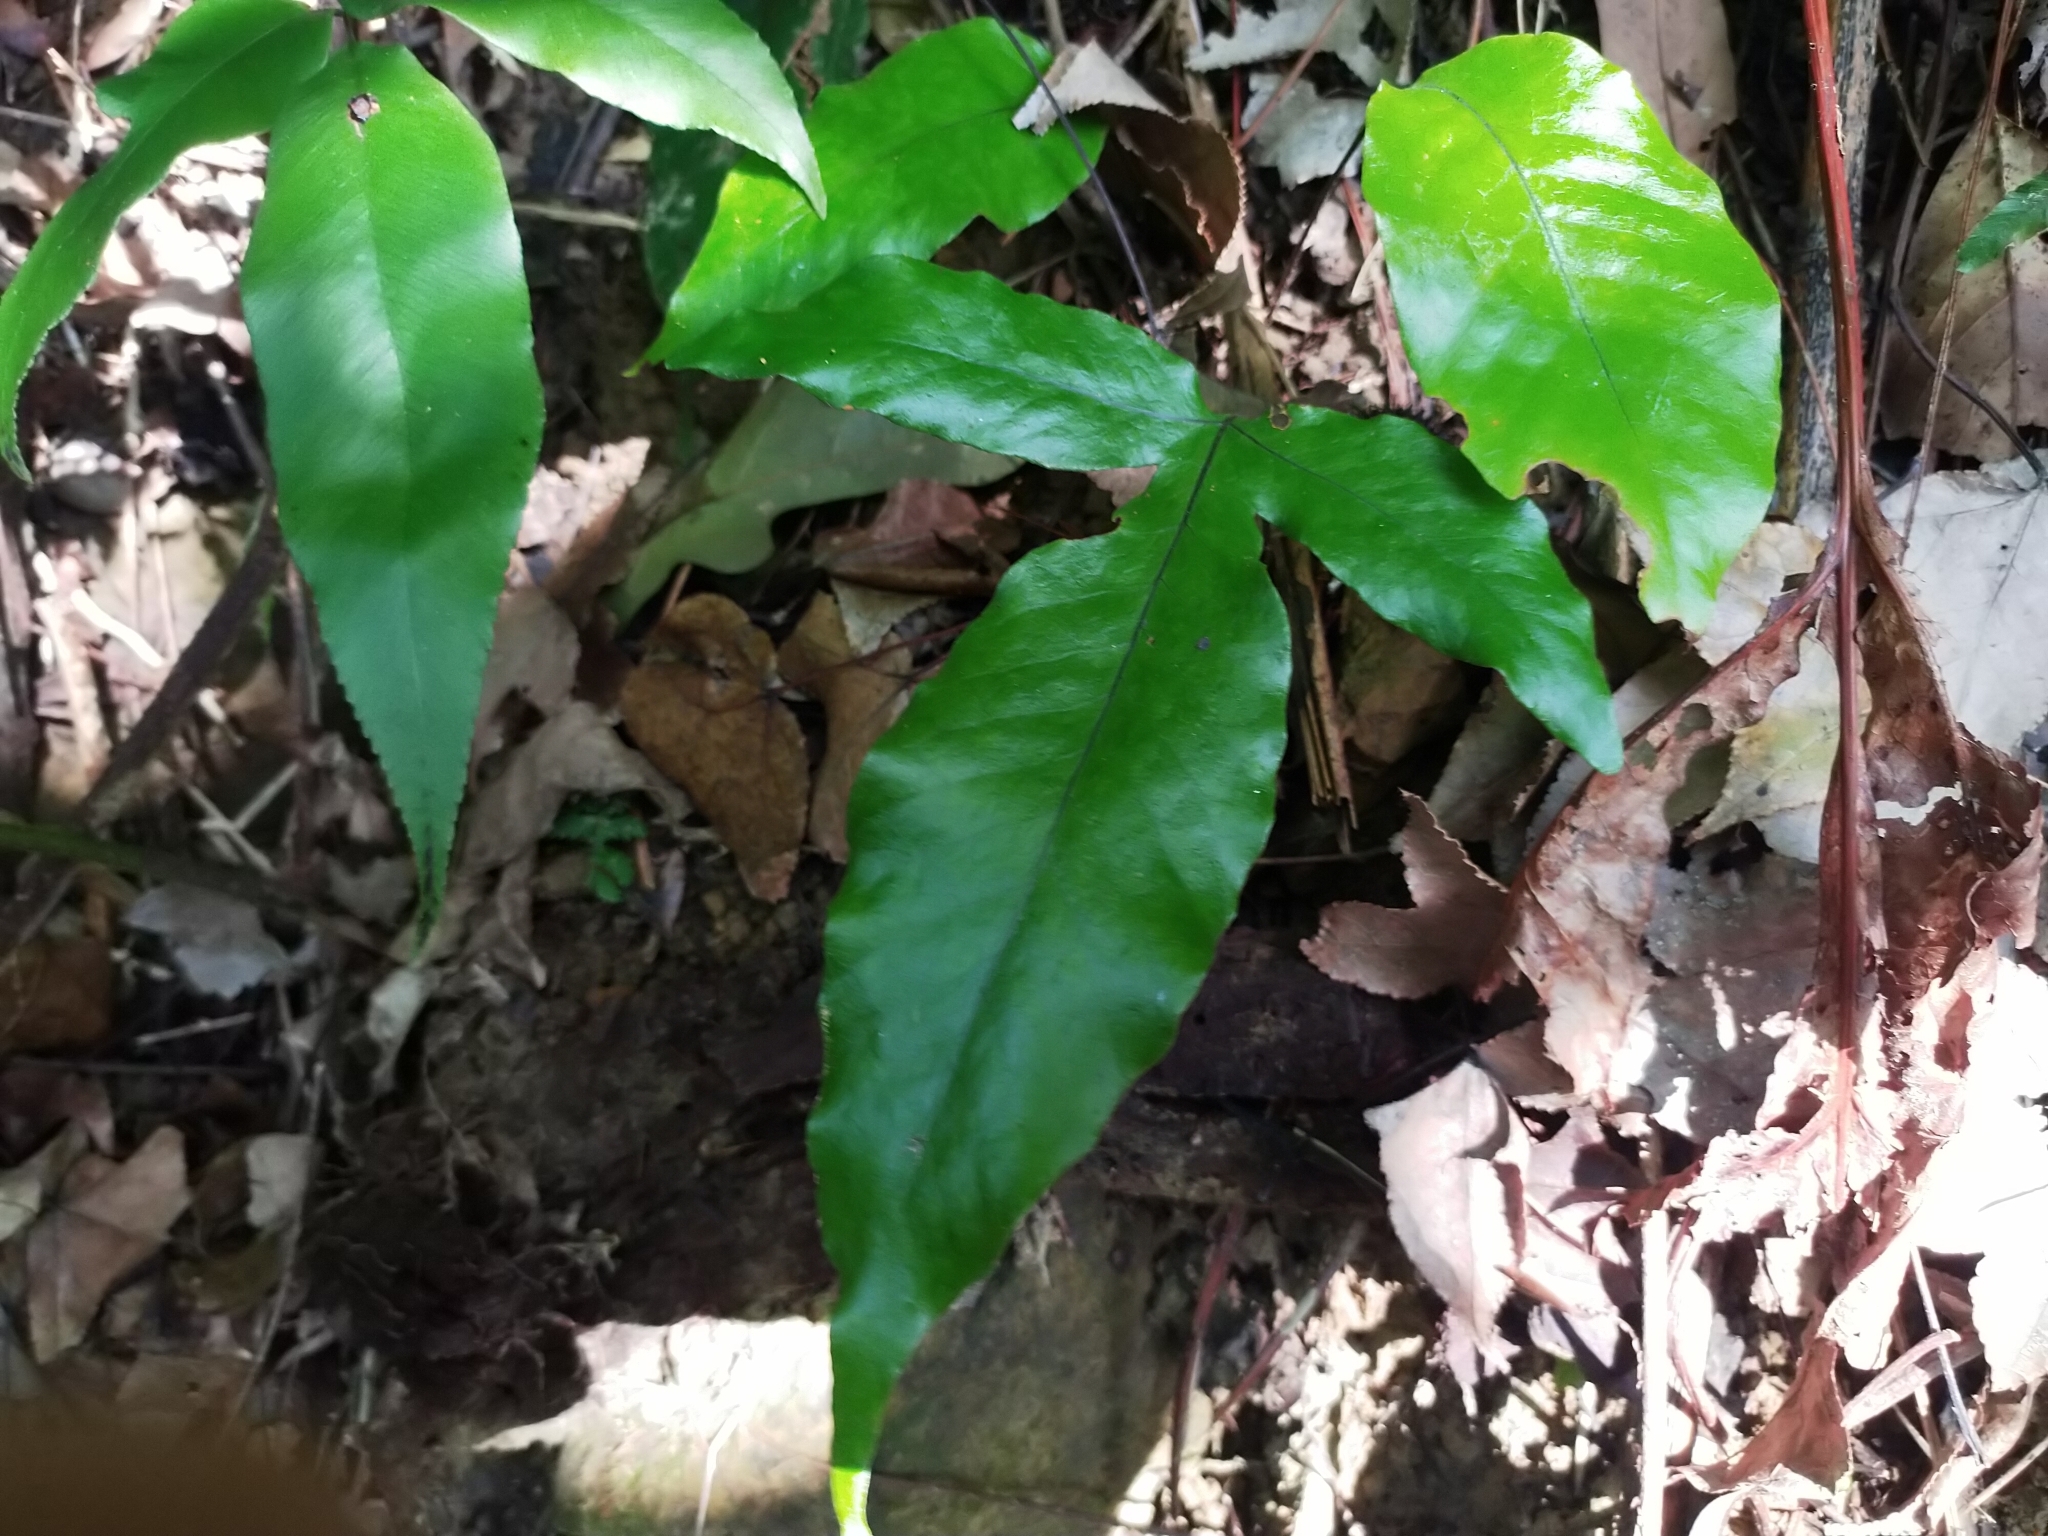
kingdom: Plantae
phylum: Tracheophyta
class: Polypodiopsida
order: Polypodiales
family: Tectariaceae
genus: Tectaria
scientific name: Tectaria harlandii
